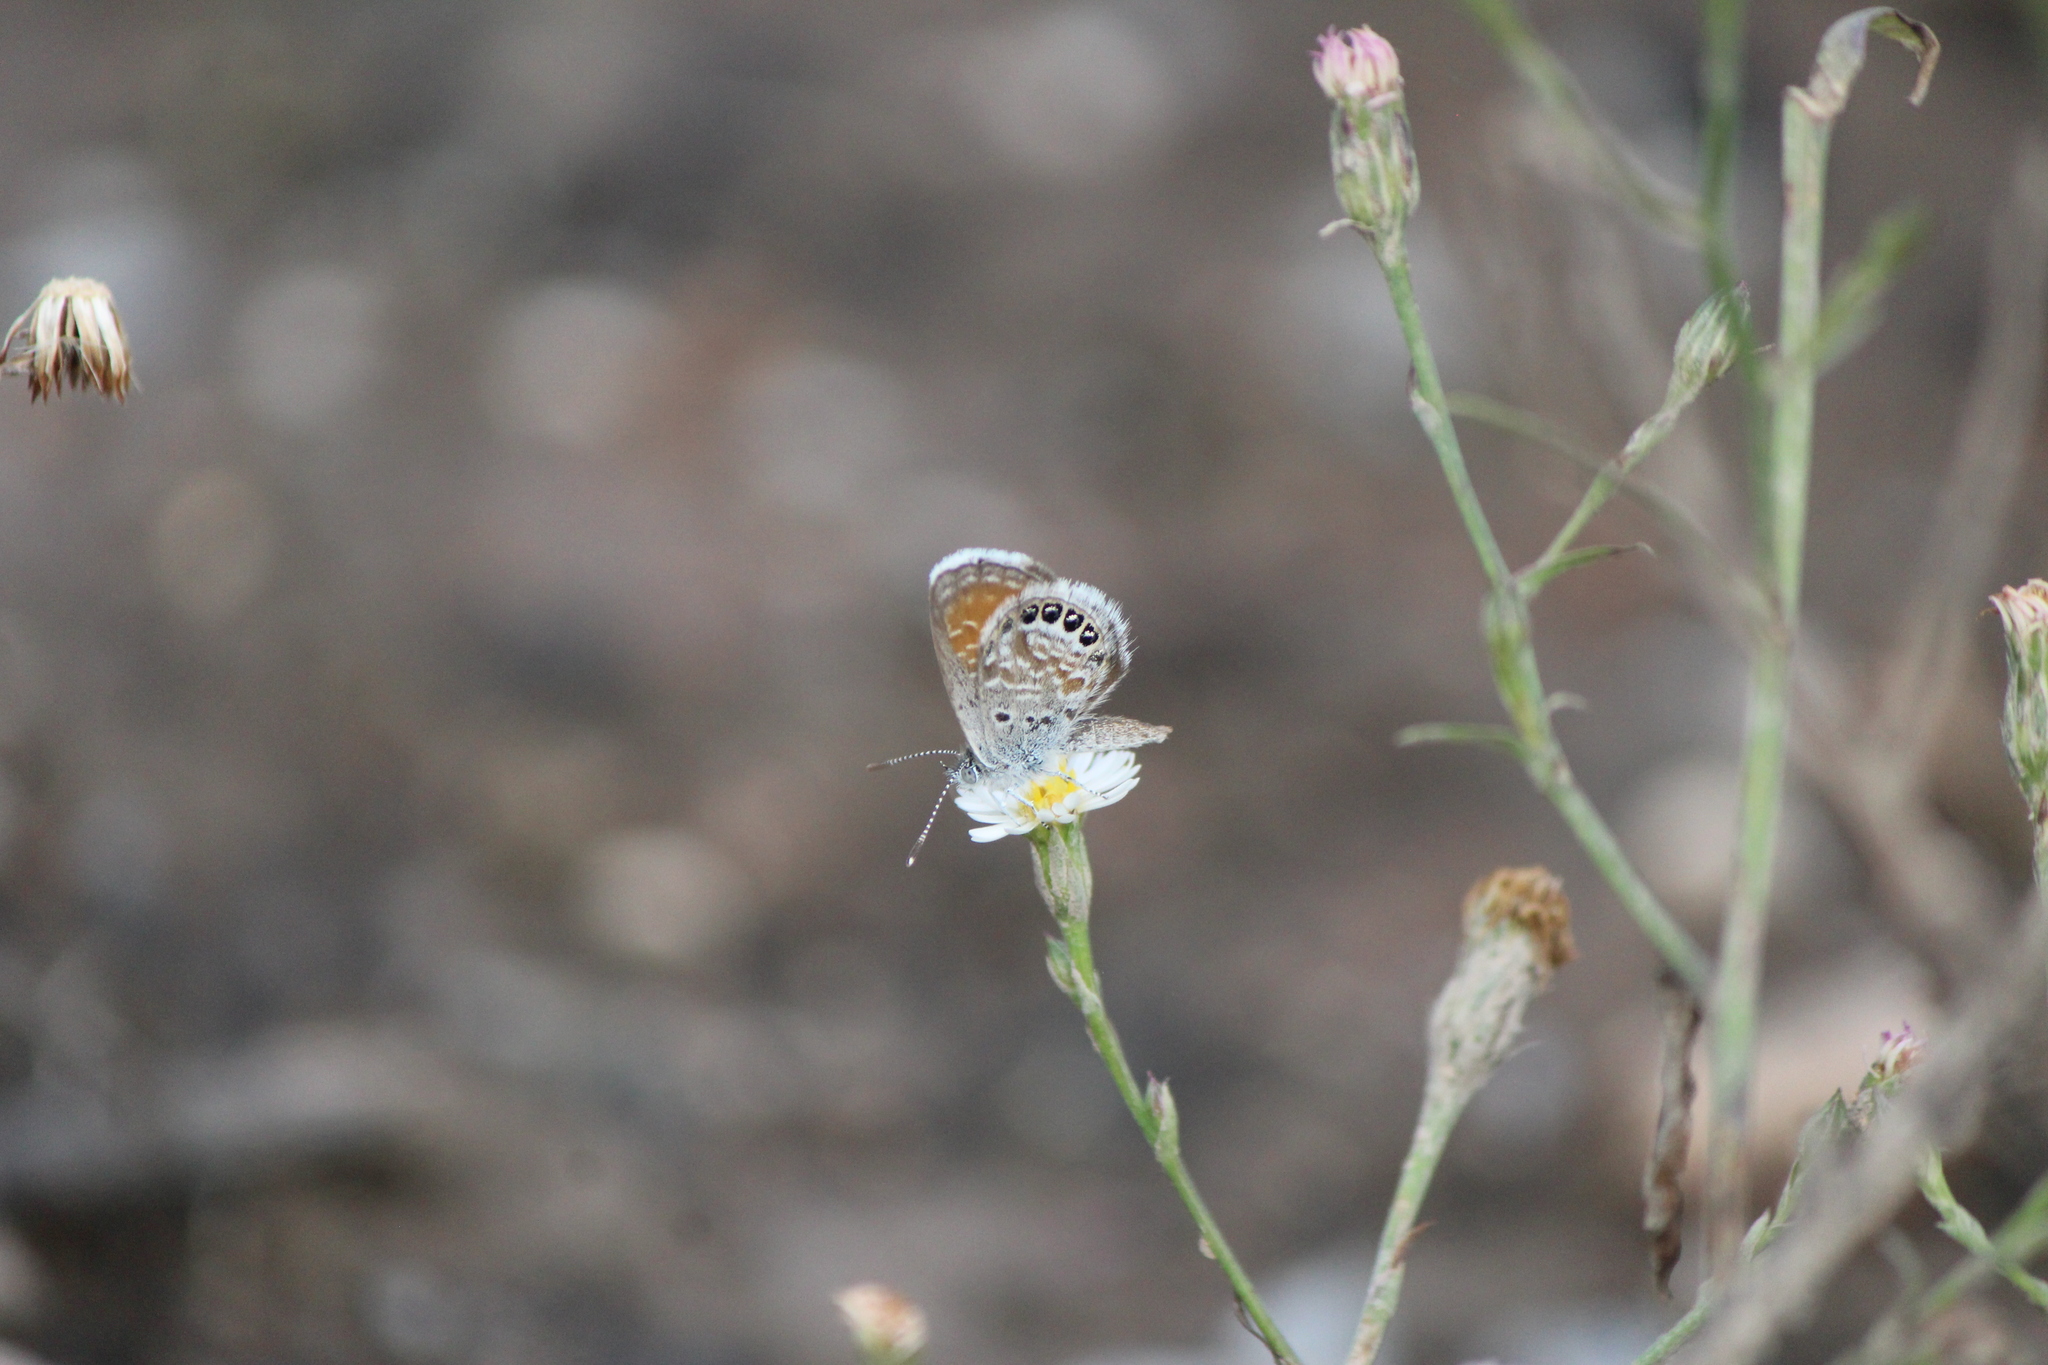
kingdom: Animalia
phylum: Arthropoda
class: Insecta
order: Lepidoptera
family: Lycaenidae
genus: Brephidium
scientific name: Brephidium exilis
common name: Pygmy blue
